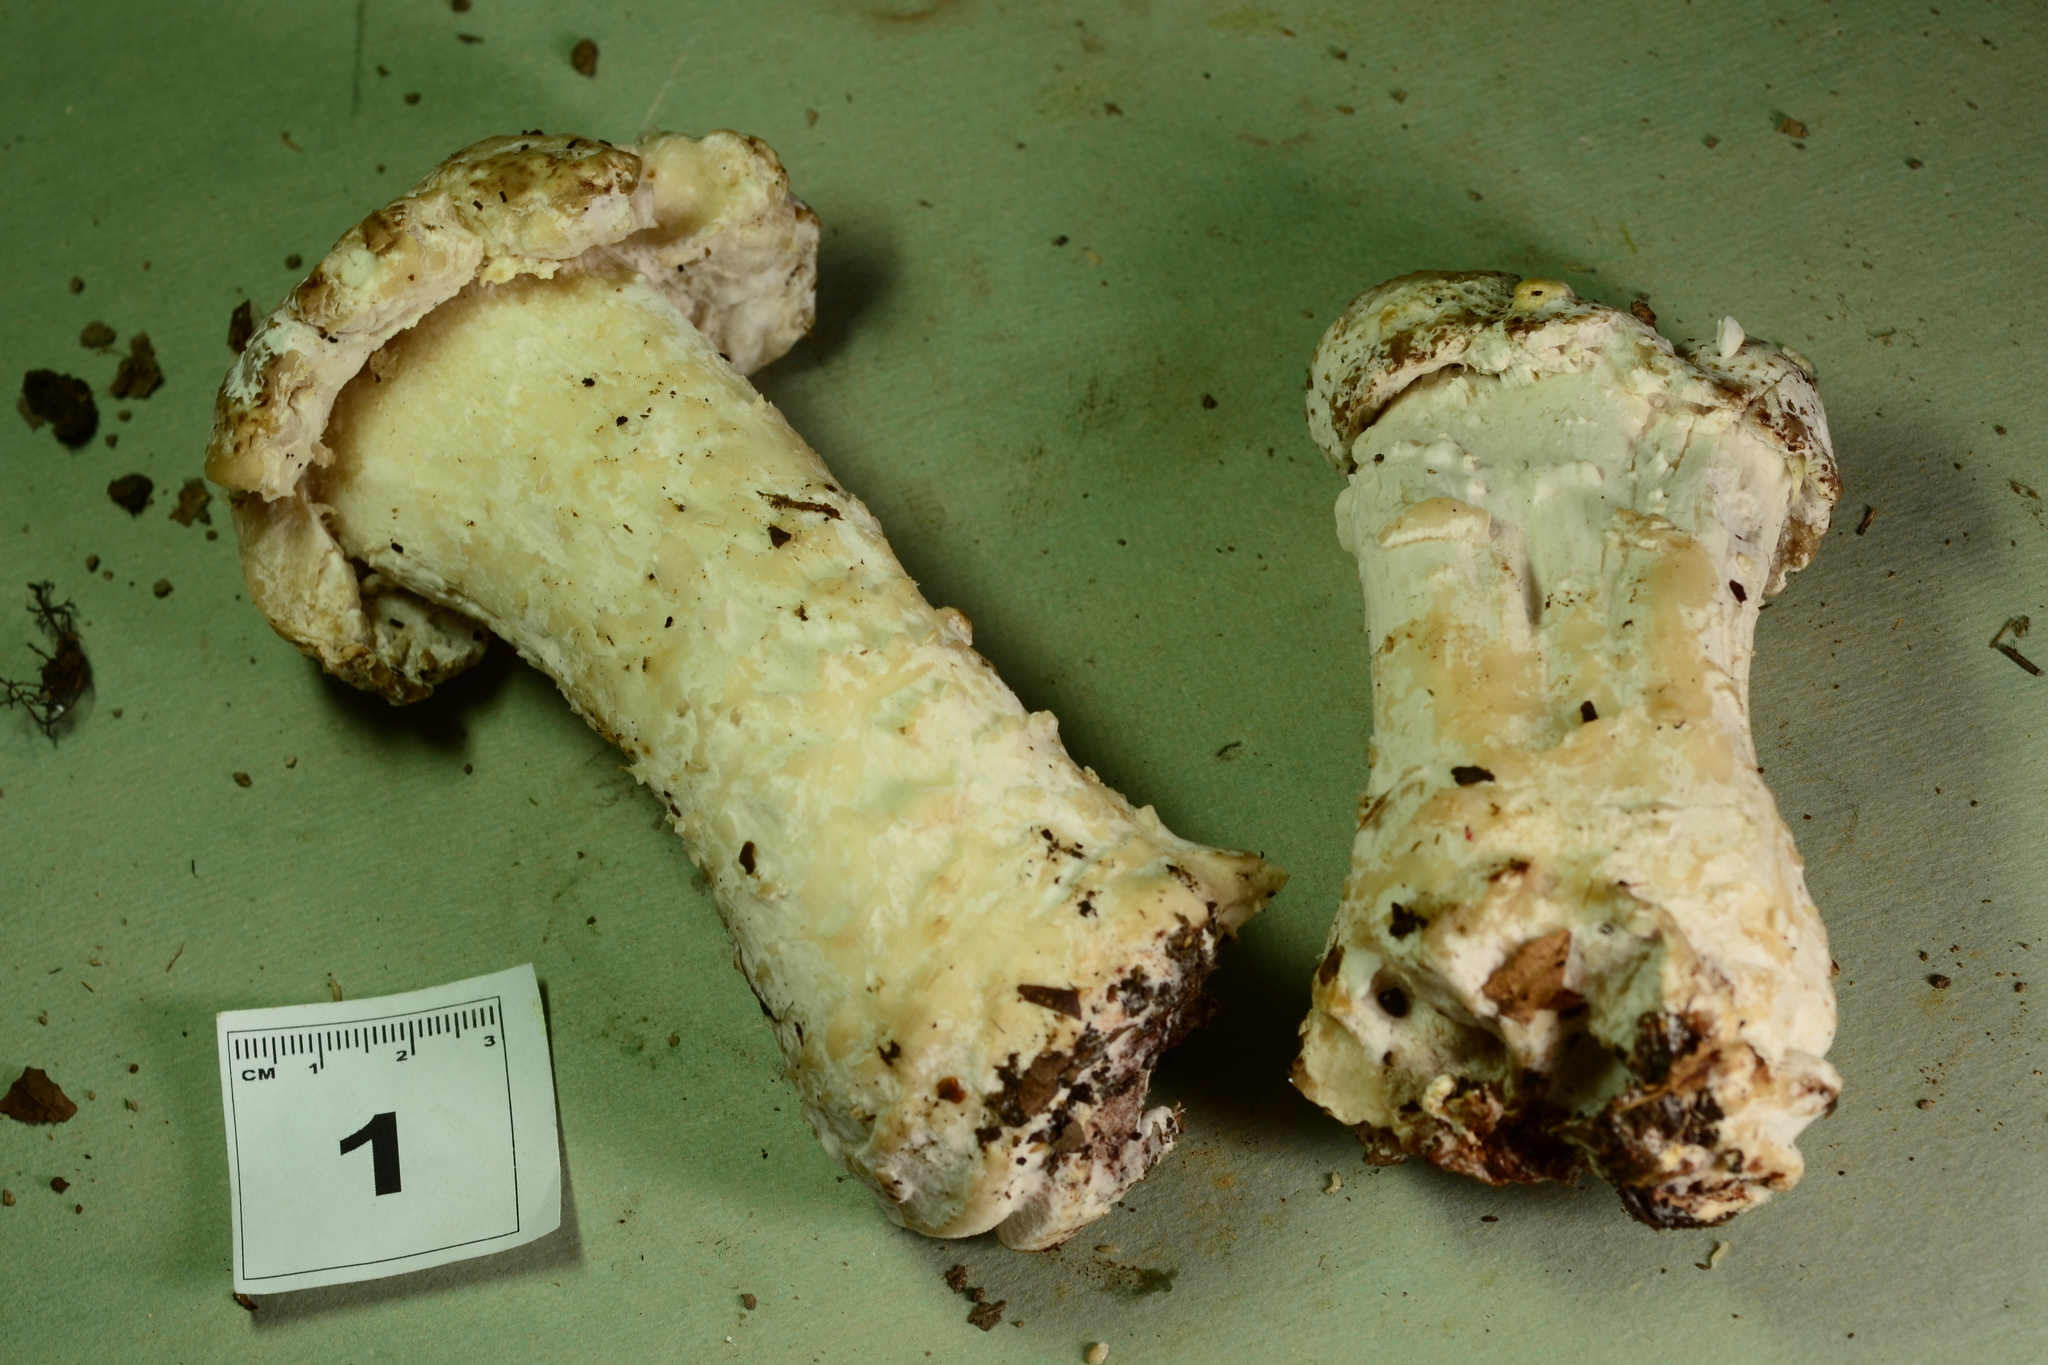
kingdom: Fungi
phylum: Ascomycota
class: Sordariomycetes
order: Hypocreales
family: Hypocreaceae
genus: Hypomyces
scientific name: Hypomyces hyalinus
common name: Amanita mold
